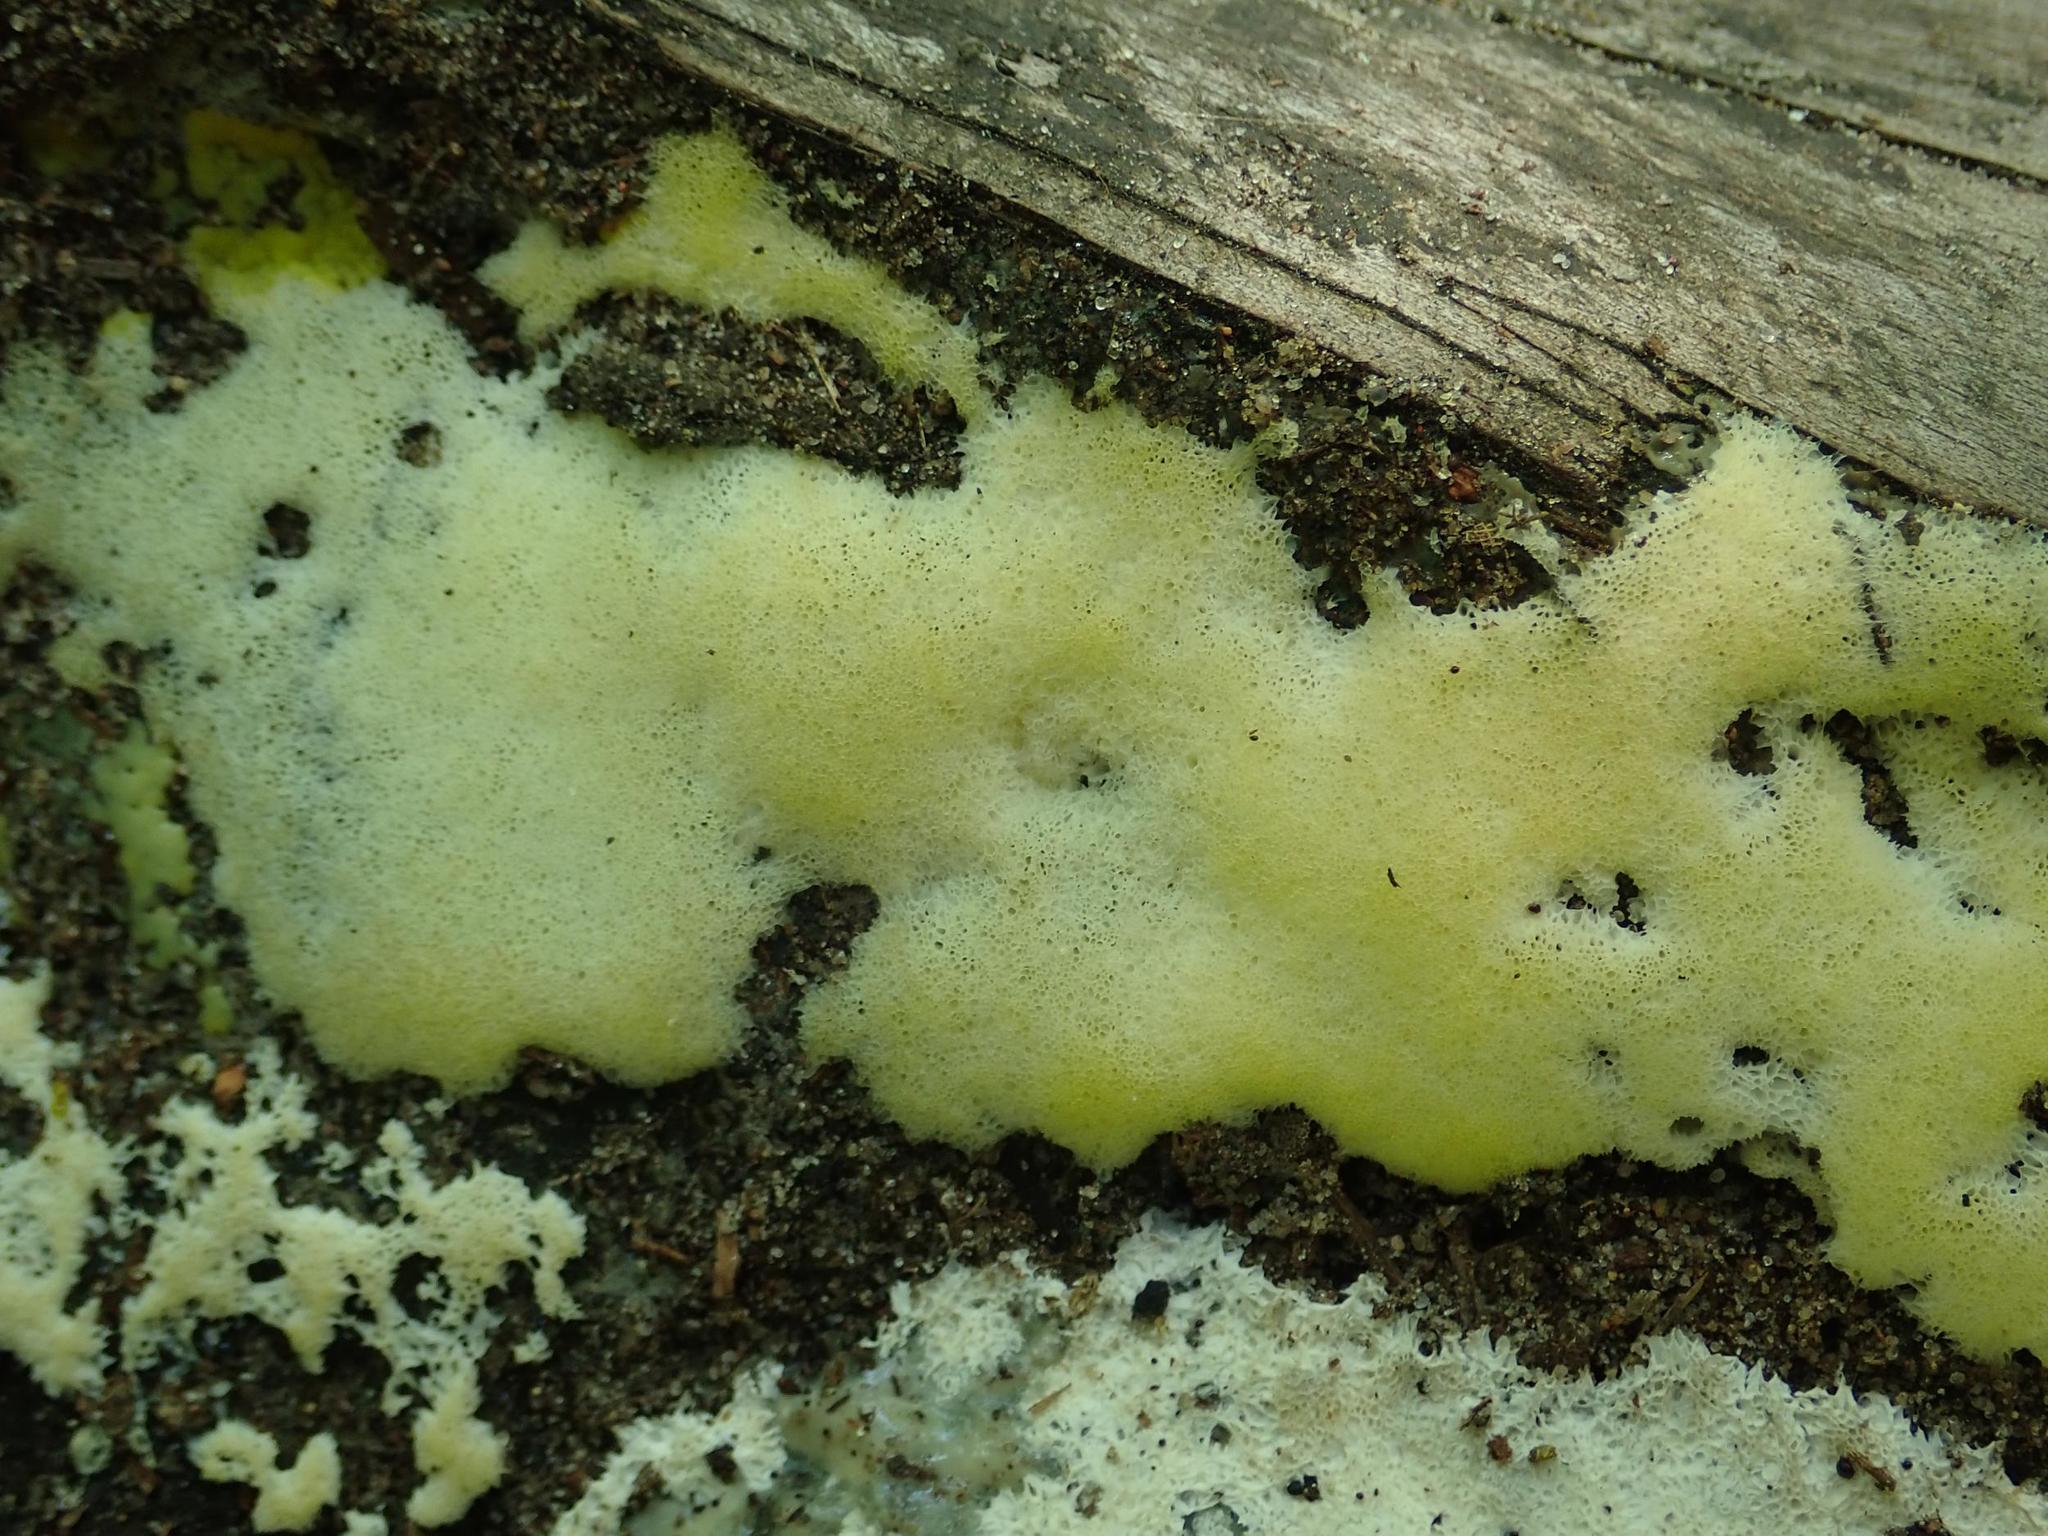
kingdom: Protozoa
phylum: Mycetozoa
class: Protosteliomycetes
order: Ceratiomyxales
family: Ceratiomyxaceae
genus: Ceratiomyxa
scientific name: Ceratiomyxa fruticulosa
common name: Honeycomb coral slime mold
